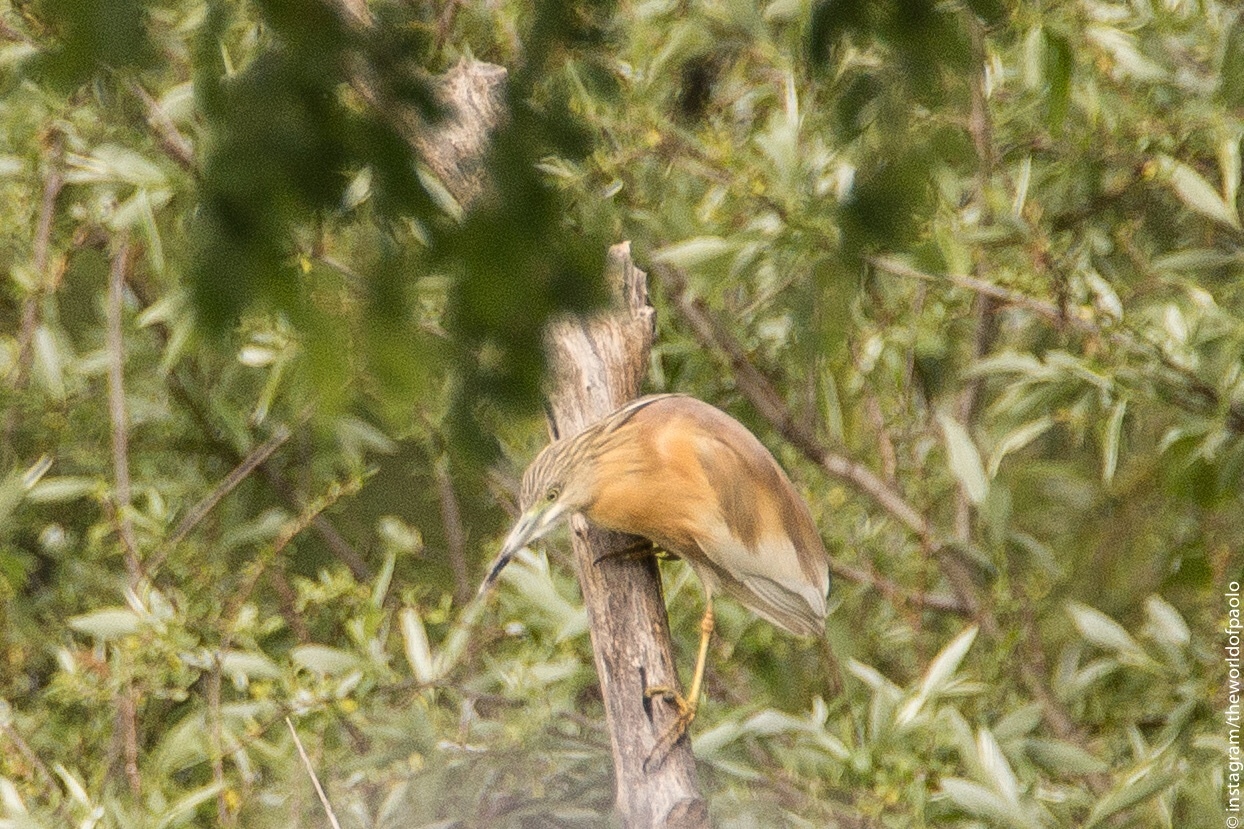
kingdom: Animalia
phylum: Chordata
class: Aves
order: Pelecaniformes
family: Ardeidae
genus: Ardeola
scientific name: Ardeola ralloides
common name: Squacco heron
